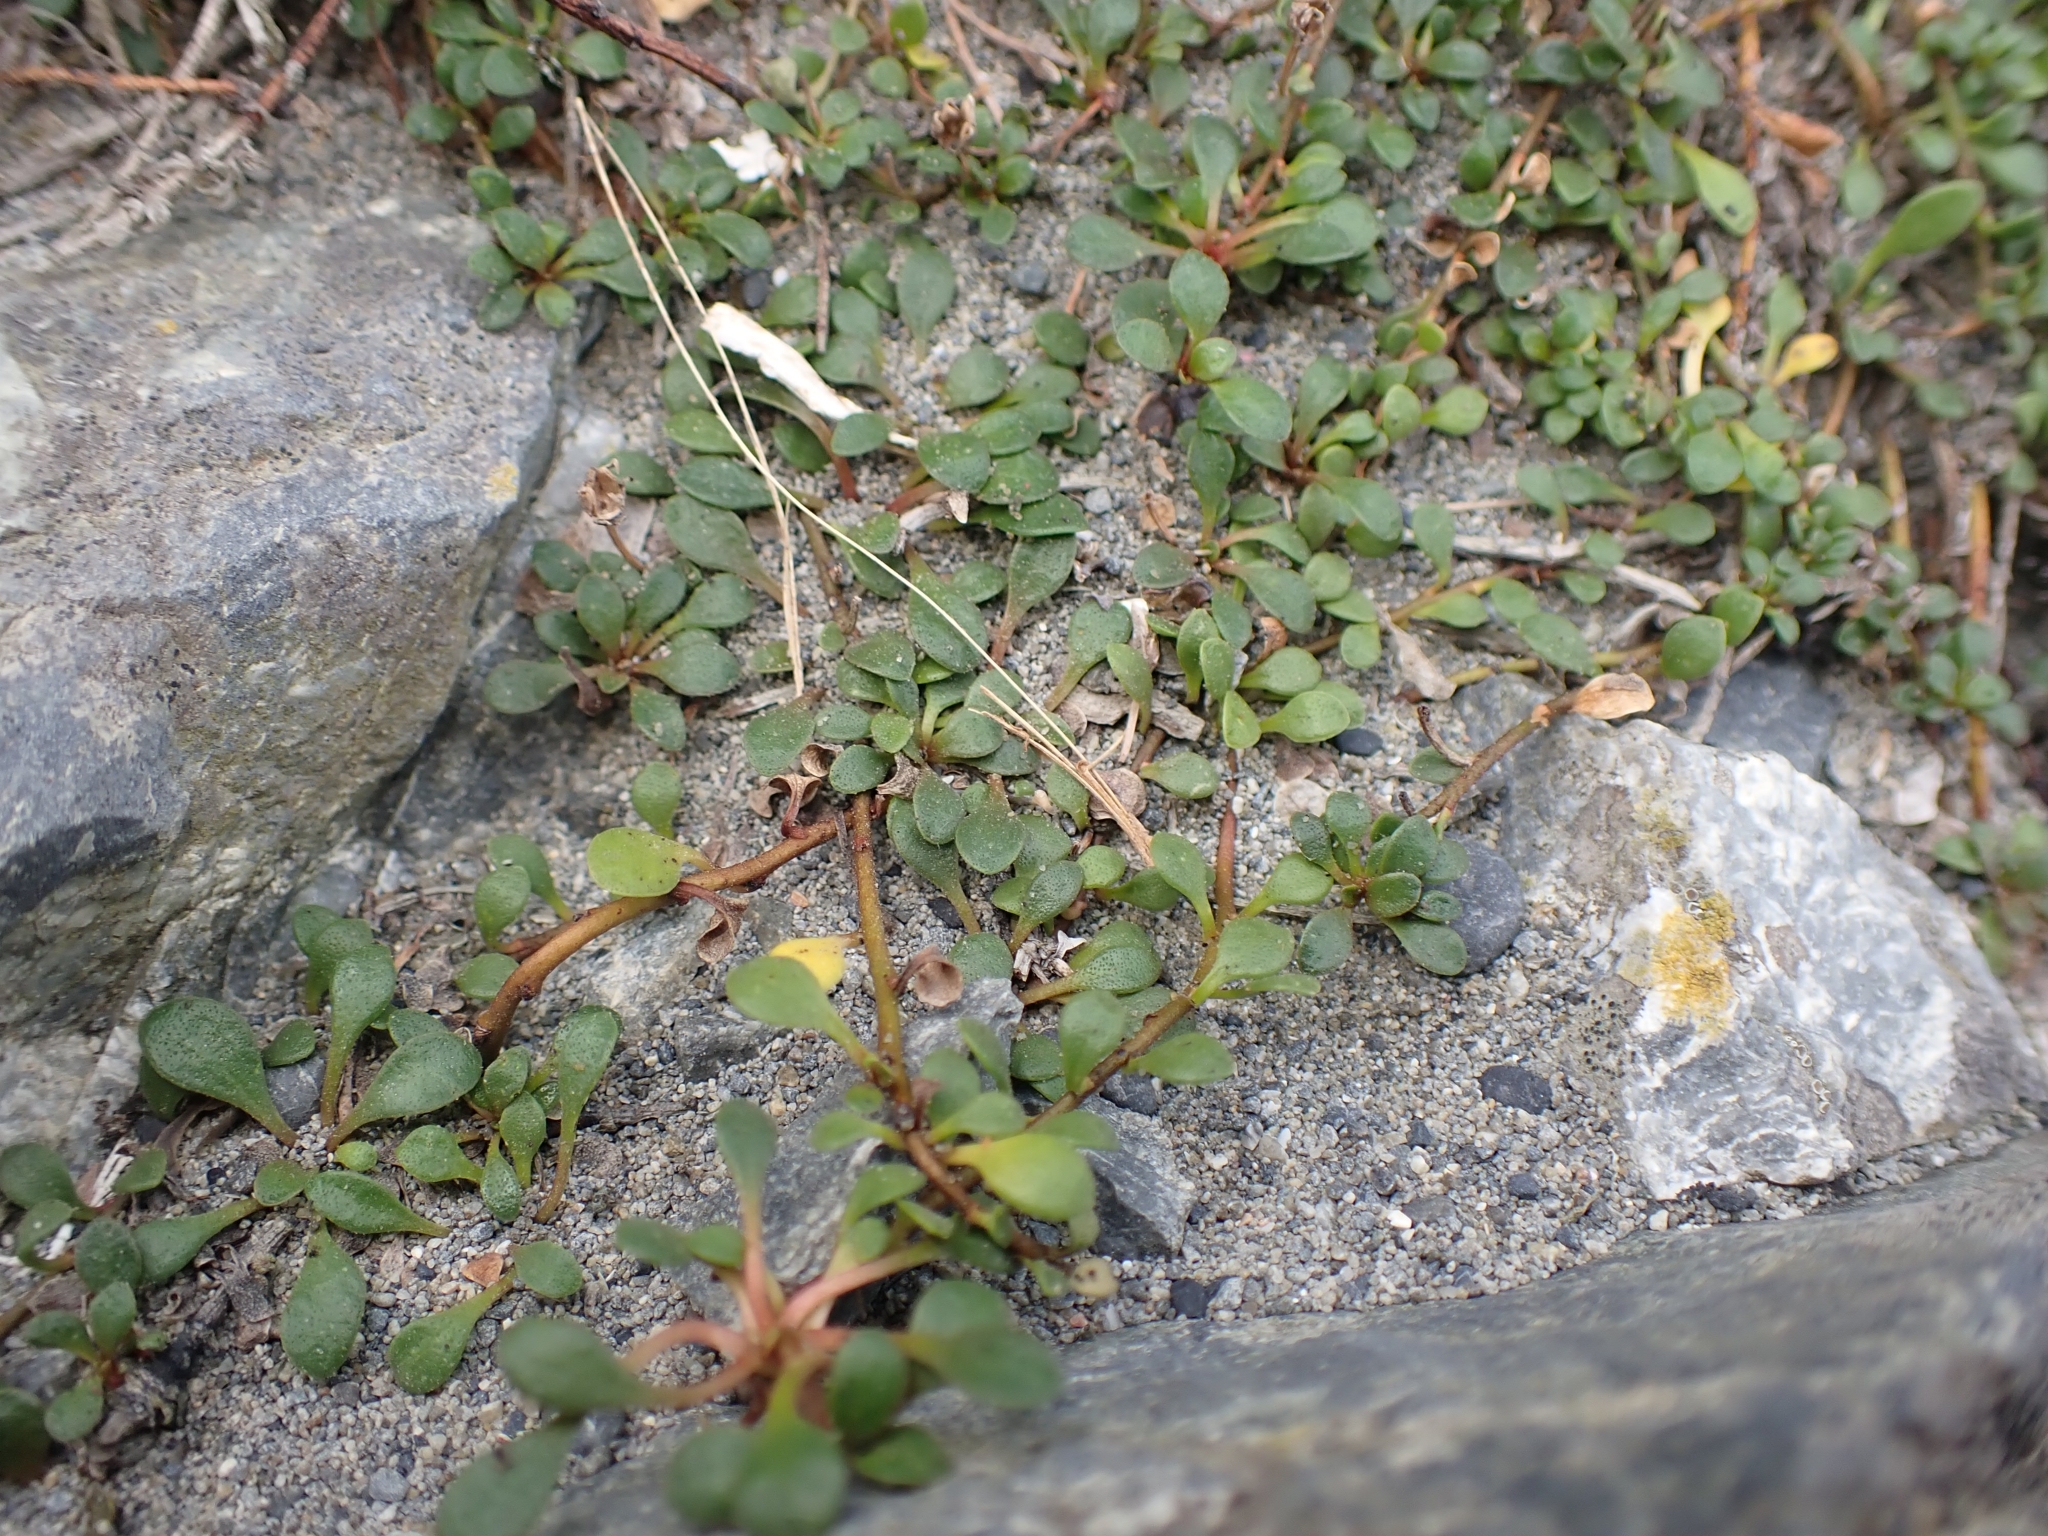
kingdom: Plantae
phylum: Tracheophyta
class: Magnoliopsida
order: Ericales
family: Primulaceae
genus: Samolus
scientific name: Samolus repens
